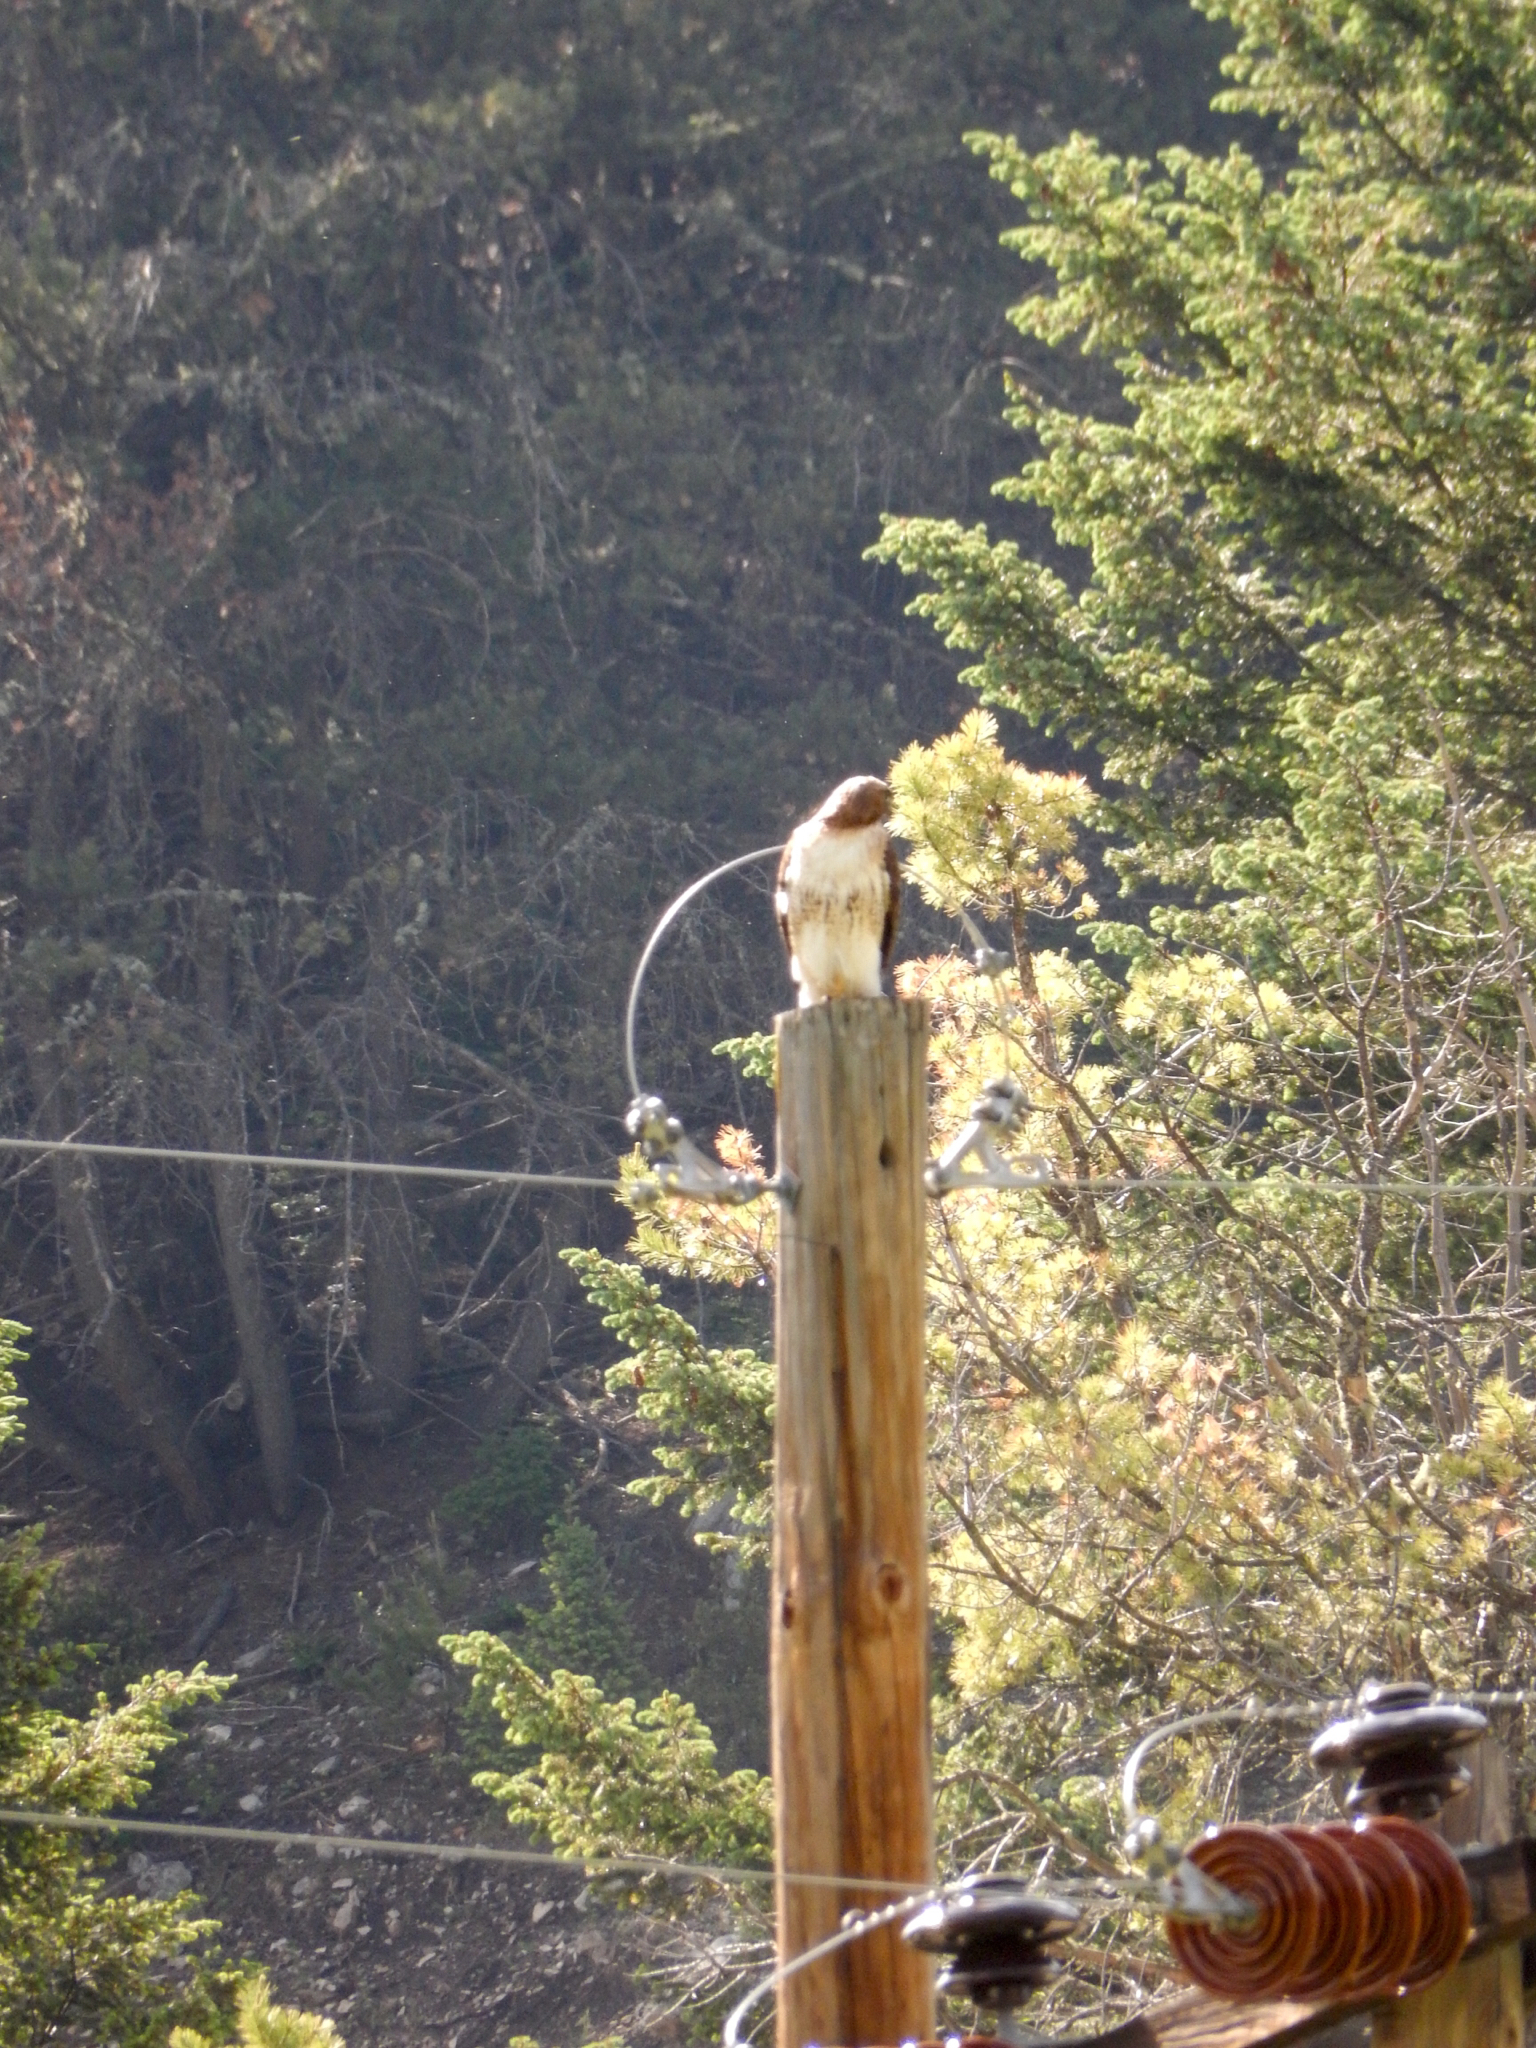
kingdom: Animalia
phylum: Chordata
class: Aves
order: Accipitriformes
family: Accipitridae
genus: Buteo
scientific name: Buteo jamaicensis
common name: Red-tailed hawk
